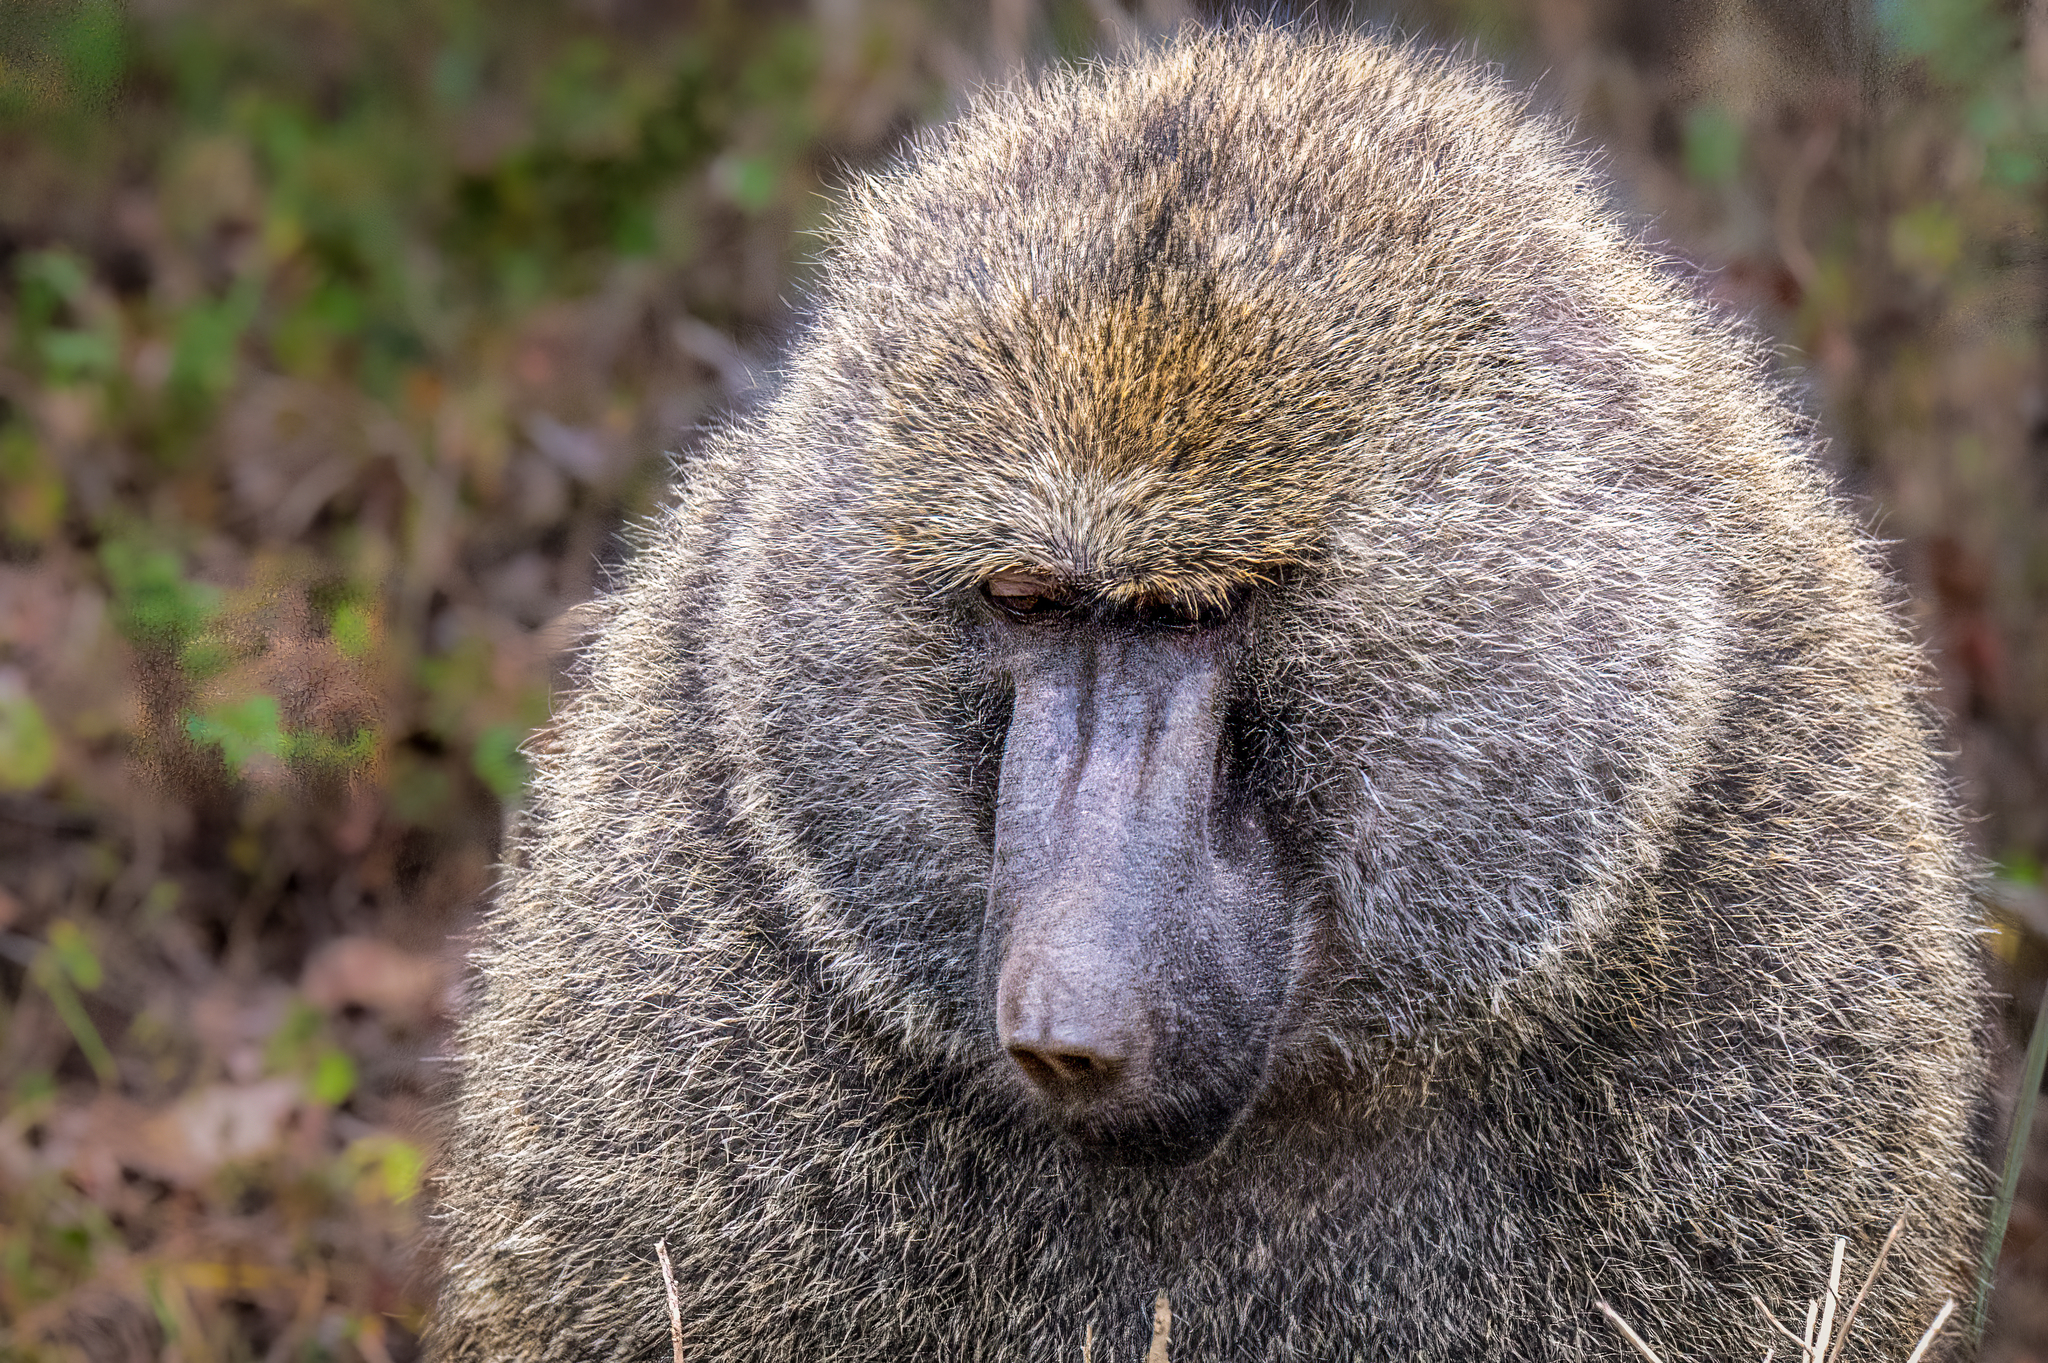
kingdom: Animalia
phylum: Chordata
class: Mammalia
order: Primates
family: Cercopithecidae
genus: Papio
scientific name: Papio anubis
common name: Olive baboon
